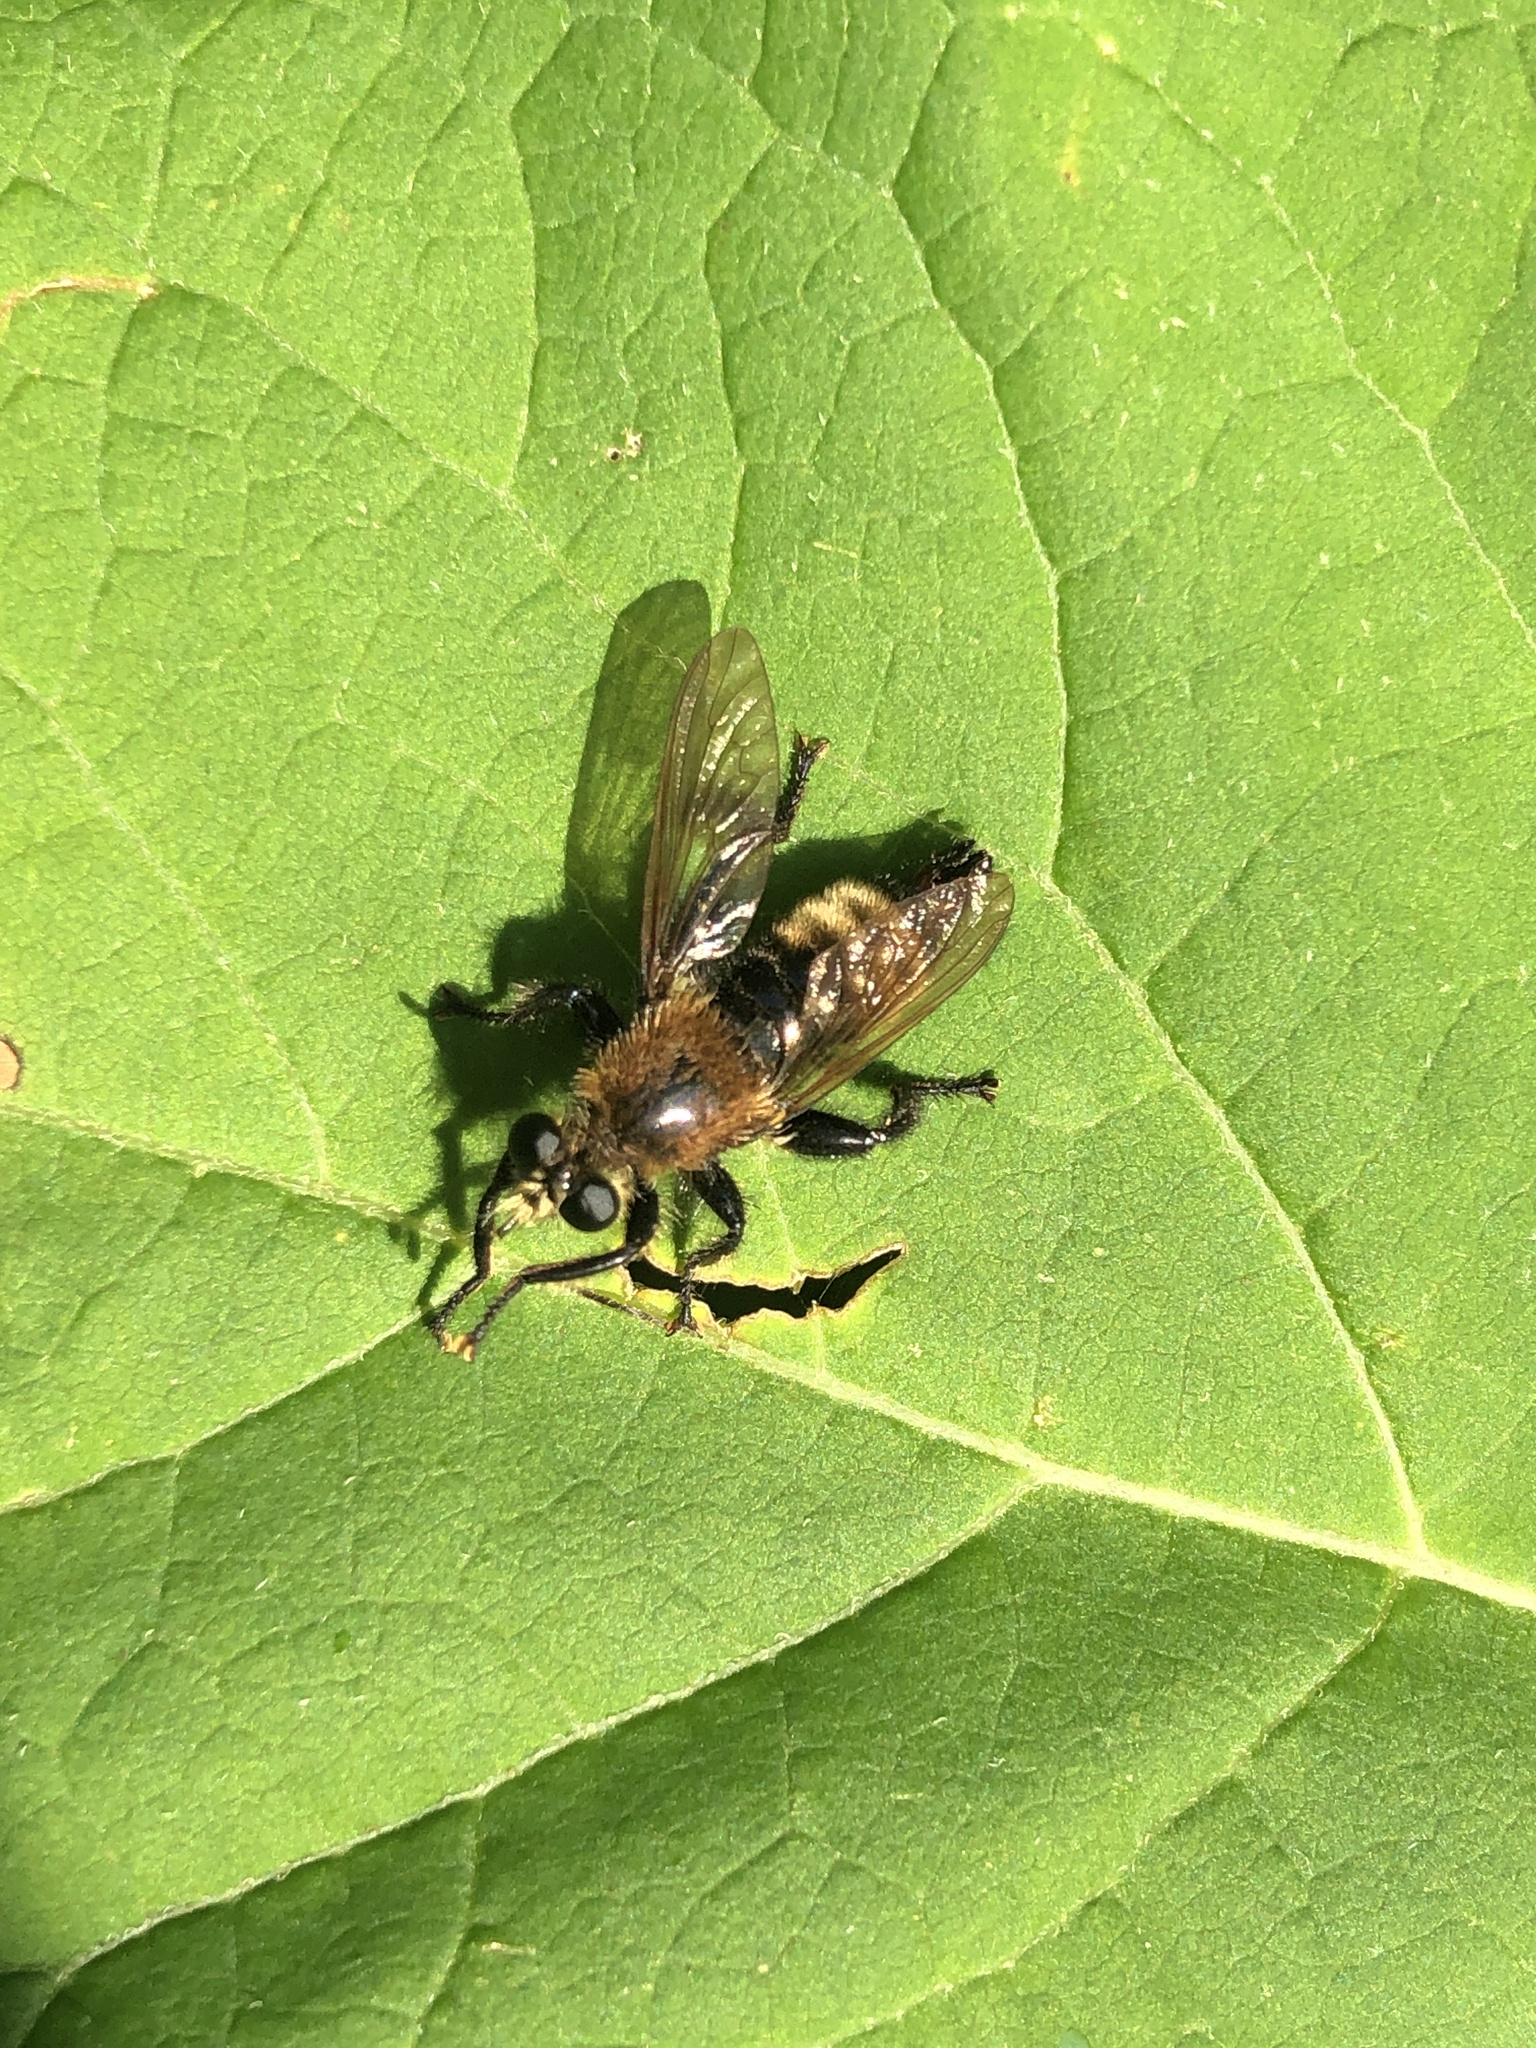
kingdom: Animalia
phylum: Arthropoda
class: Insecta
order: Diptera
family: Asilidae
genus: Laphria
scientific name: Laphria posticata
